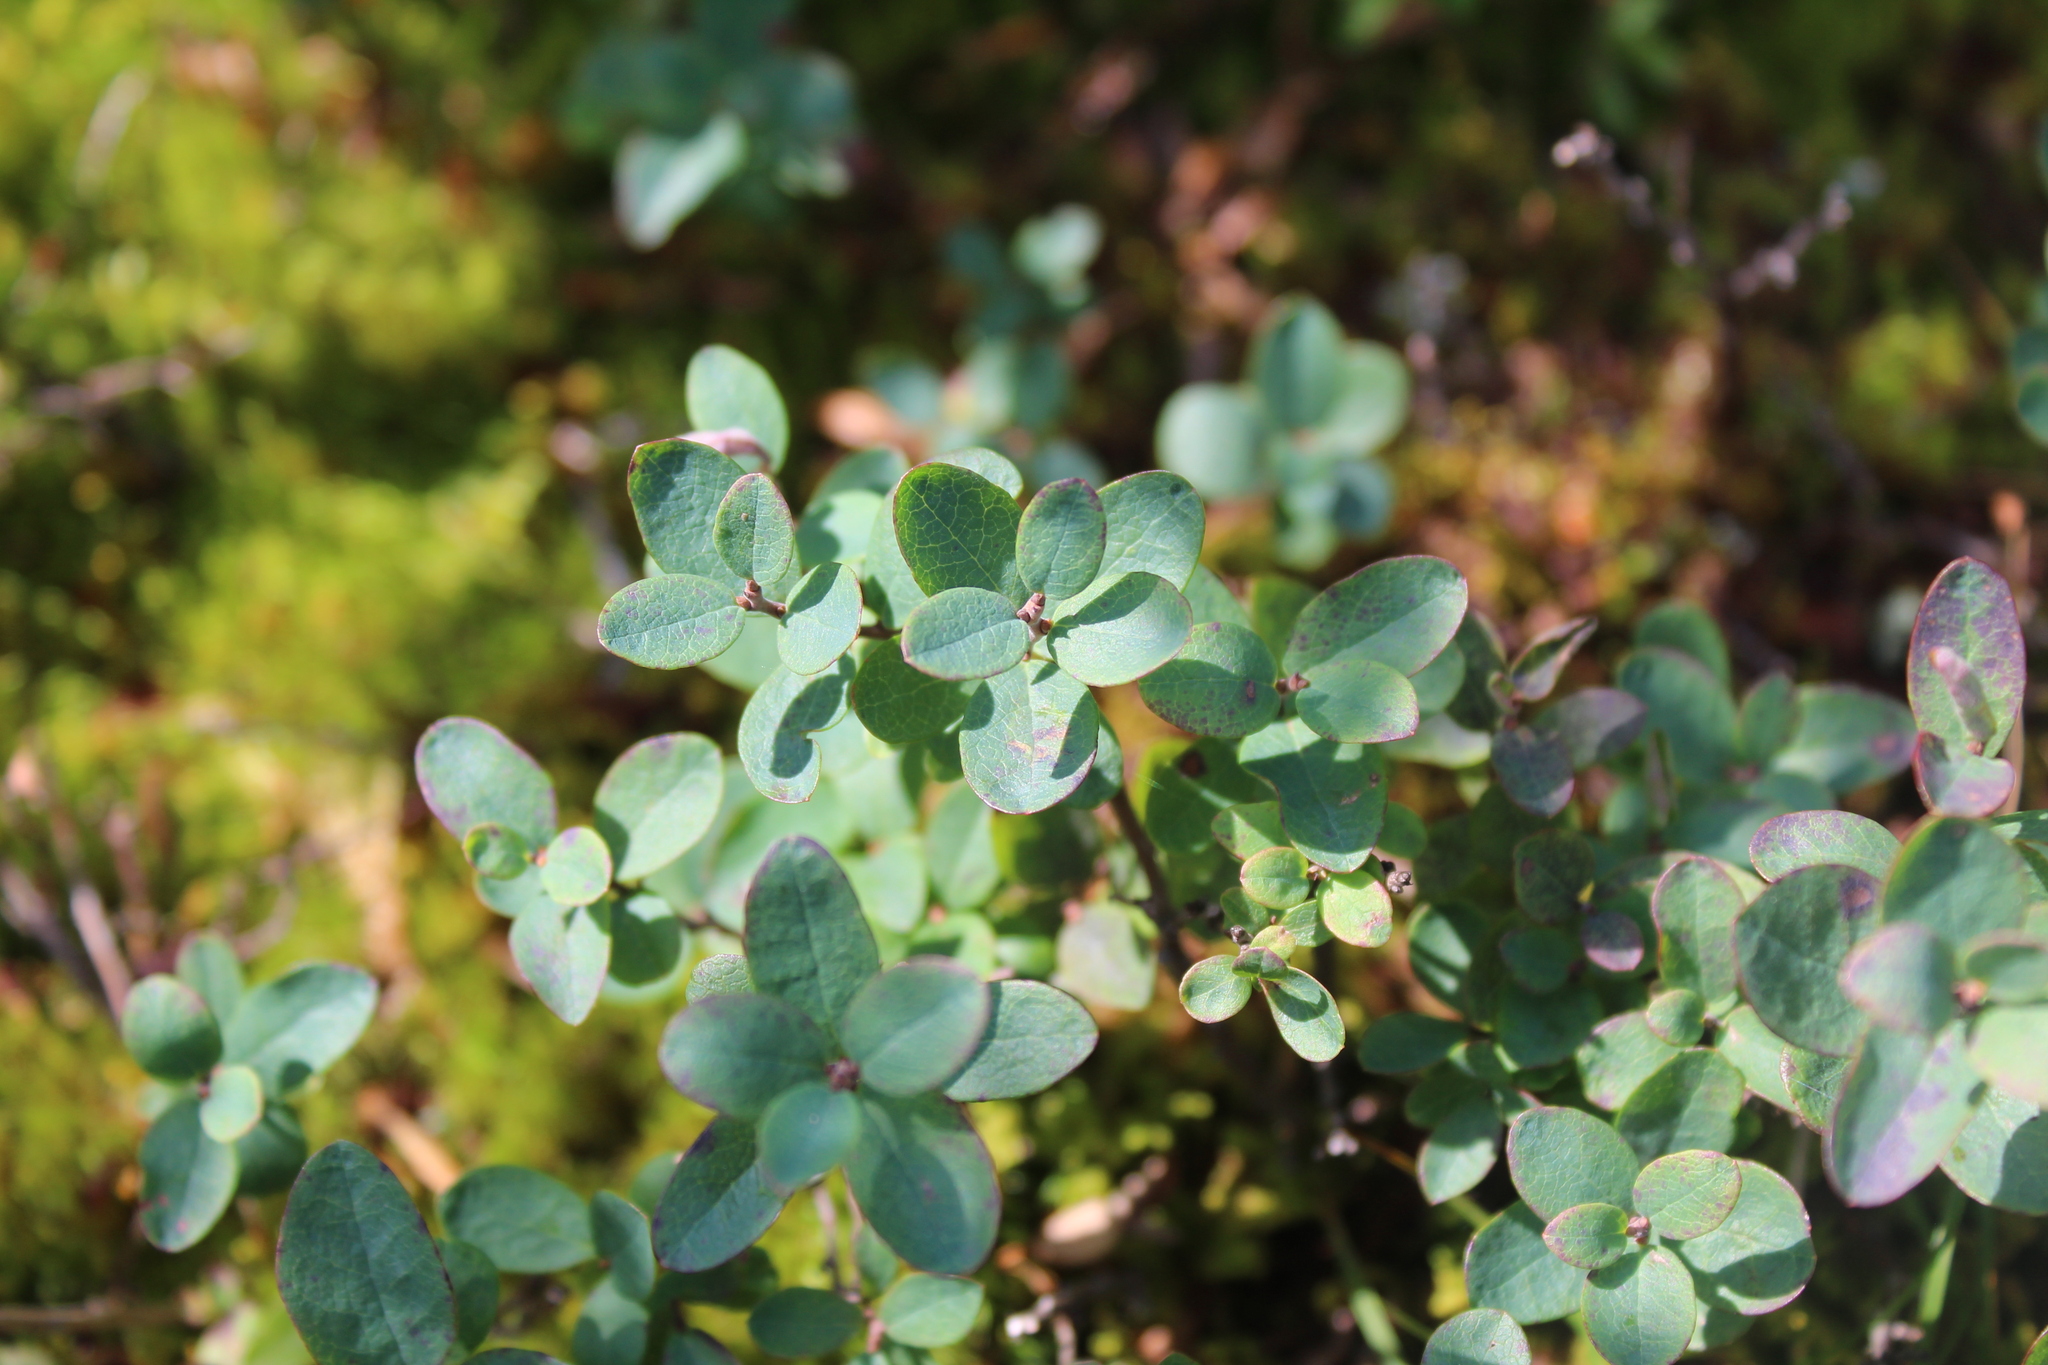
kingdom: Plantae
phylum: Tracheophyta
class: Magnoliopsida
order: Ericales
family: Ericaceae
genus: Vaccinium
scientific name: Vaccinium uliginosum
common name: Bog bilberry
